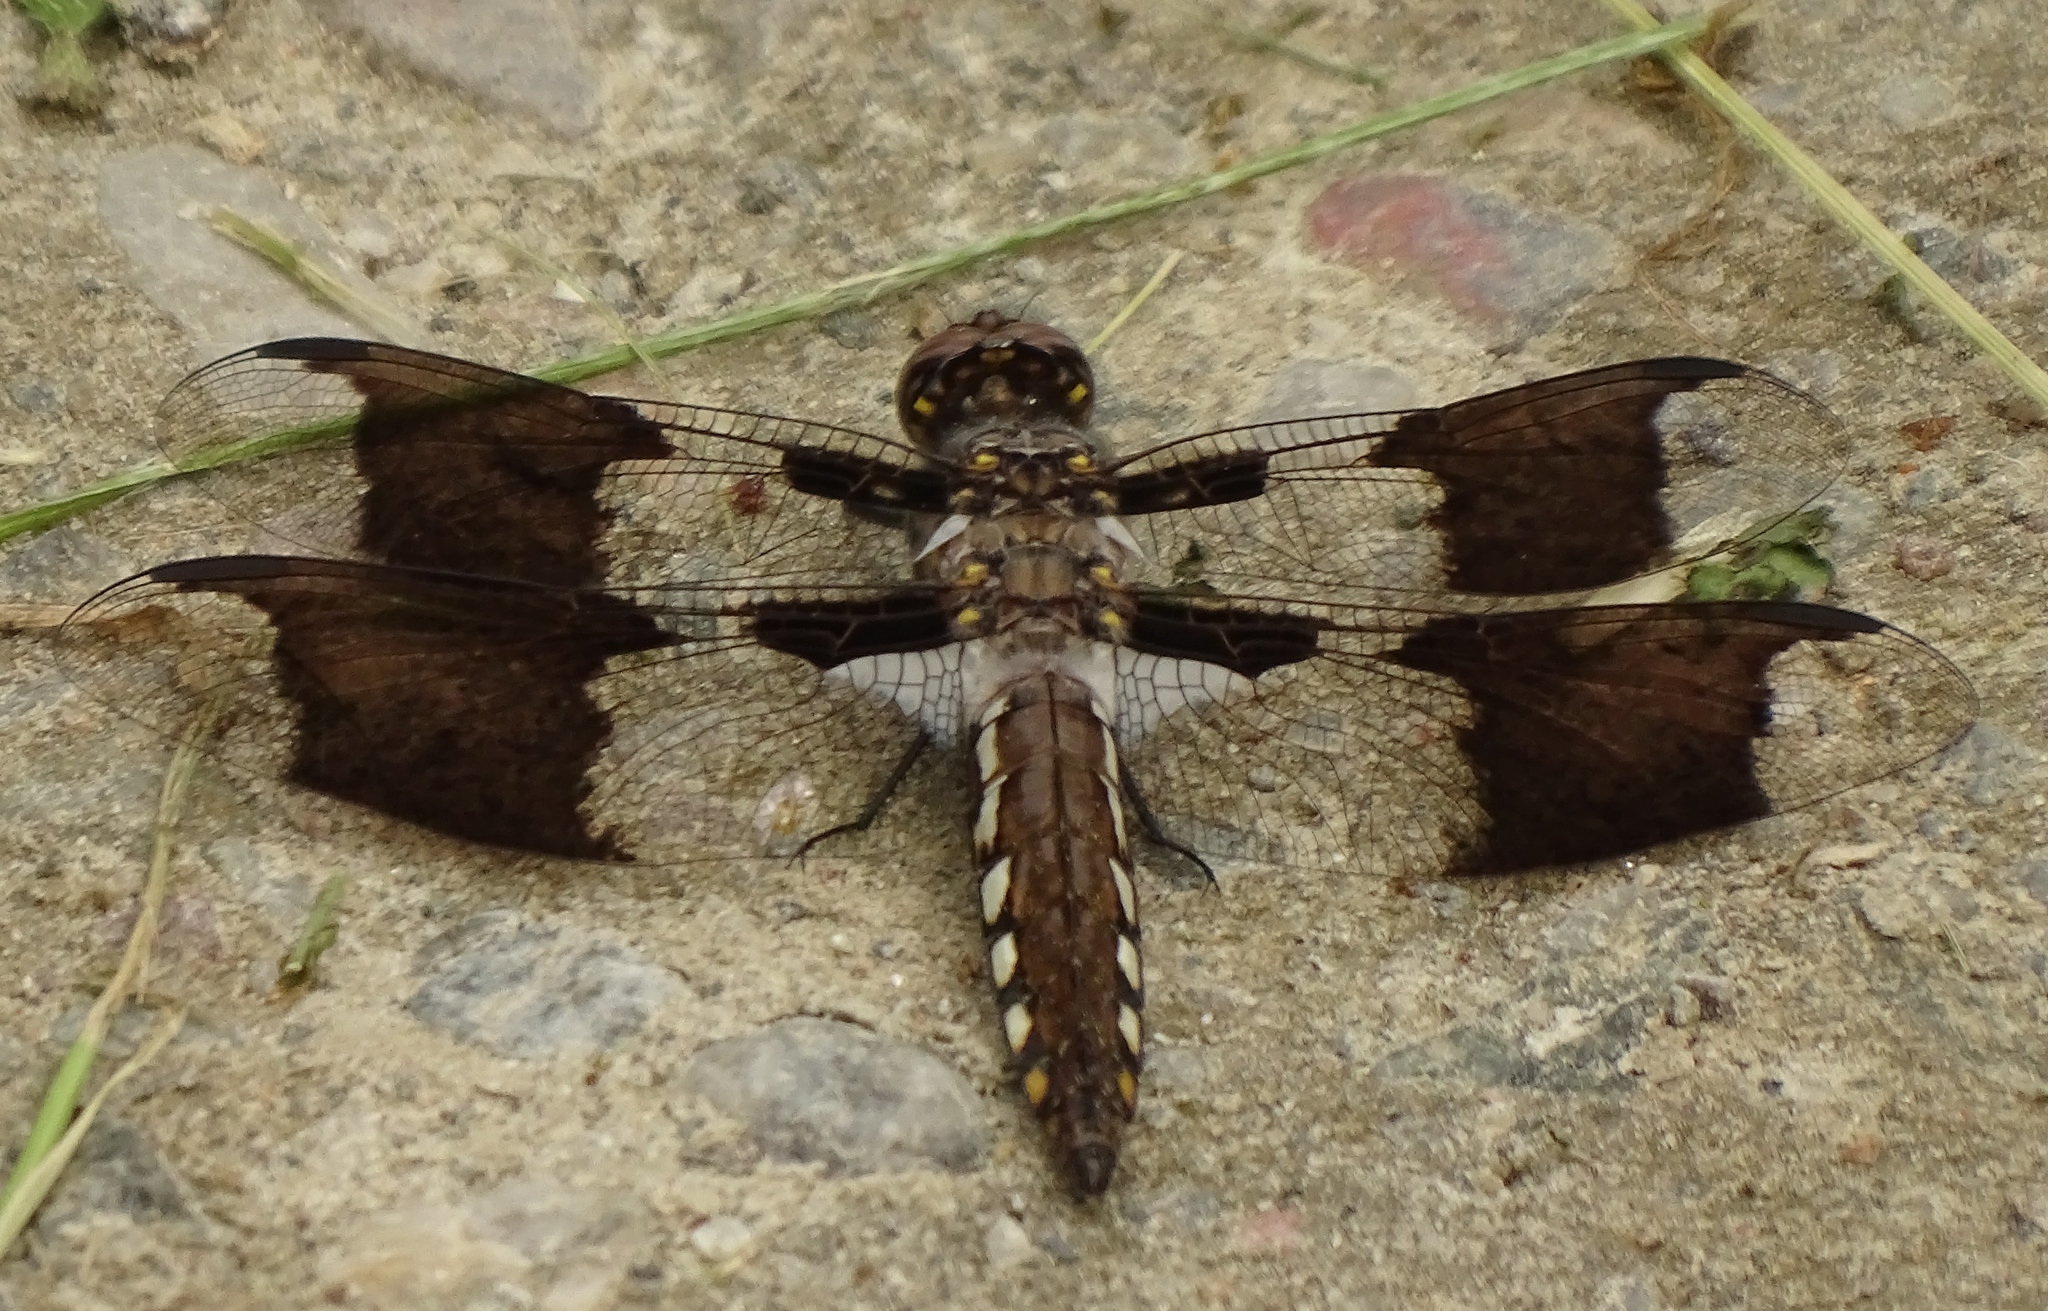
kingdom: Animalia
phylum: Arthropoda
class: Insecta
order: Odonata
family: Libellulidae
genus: Plathemis
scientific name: Plathemis lydia
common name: Common whitetail
